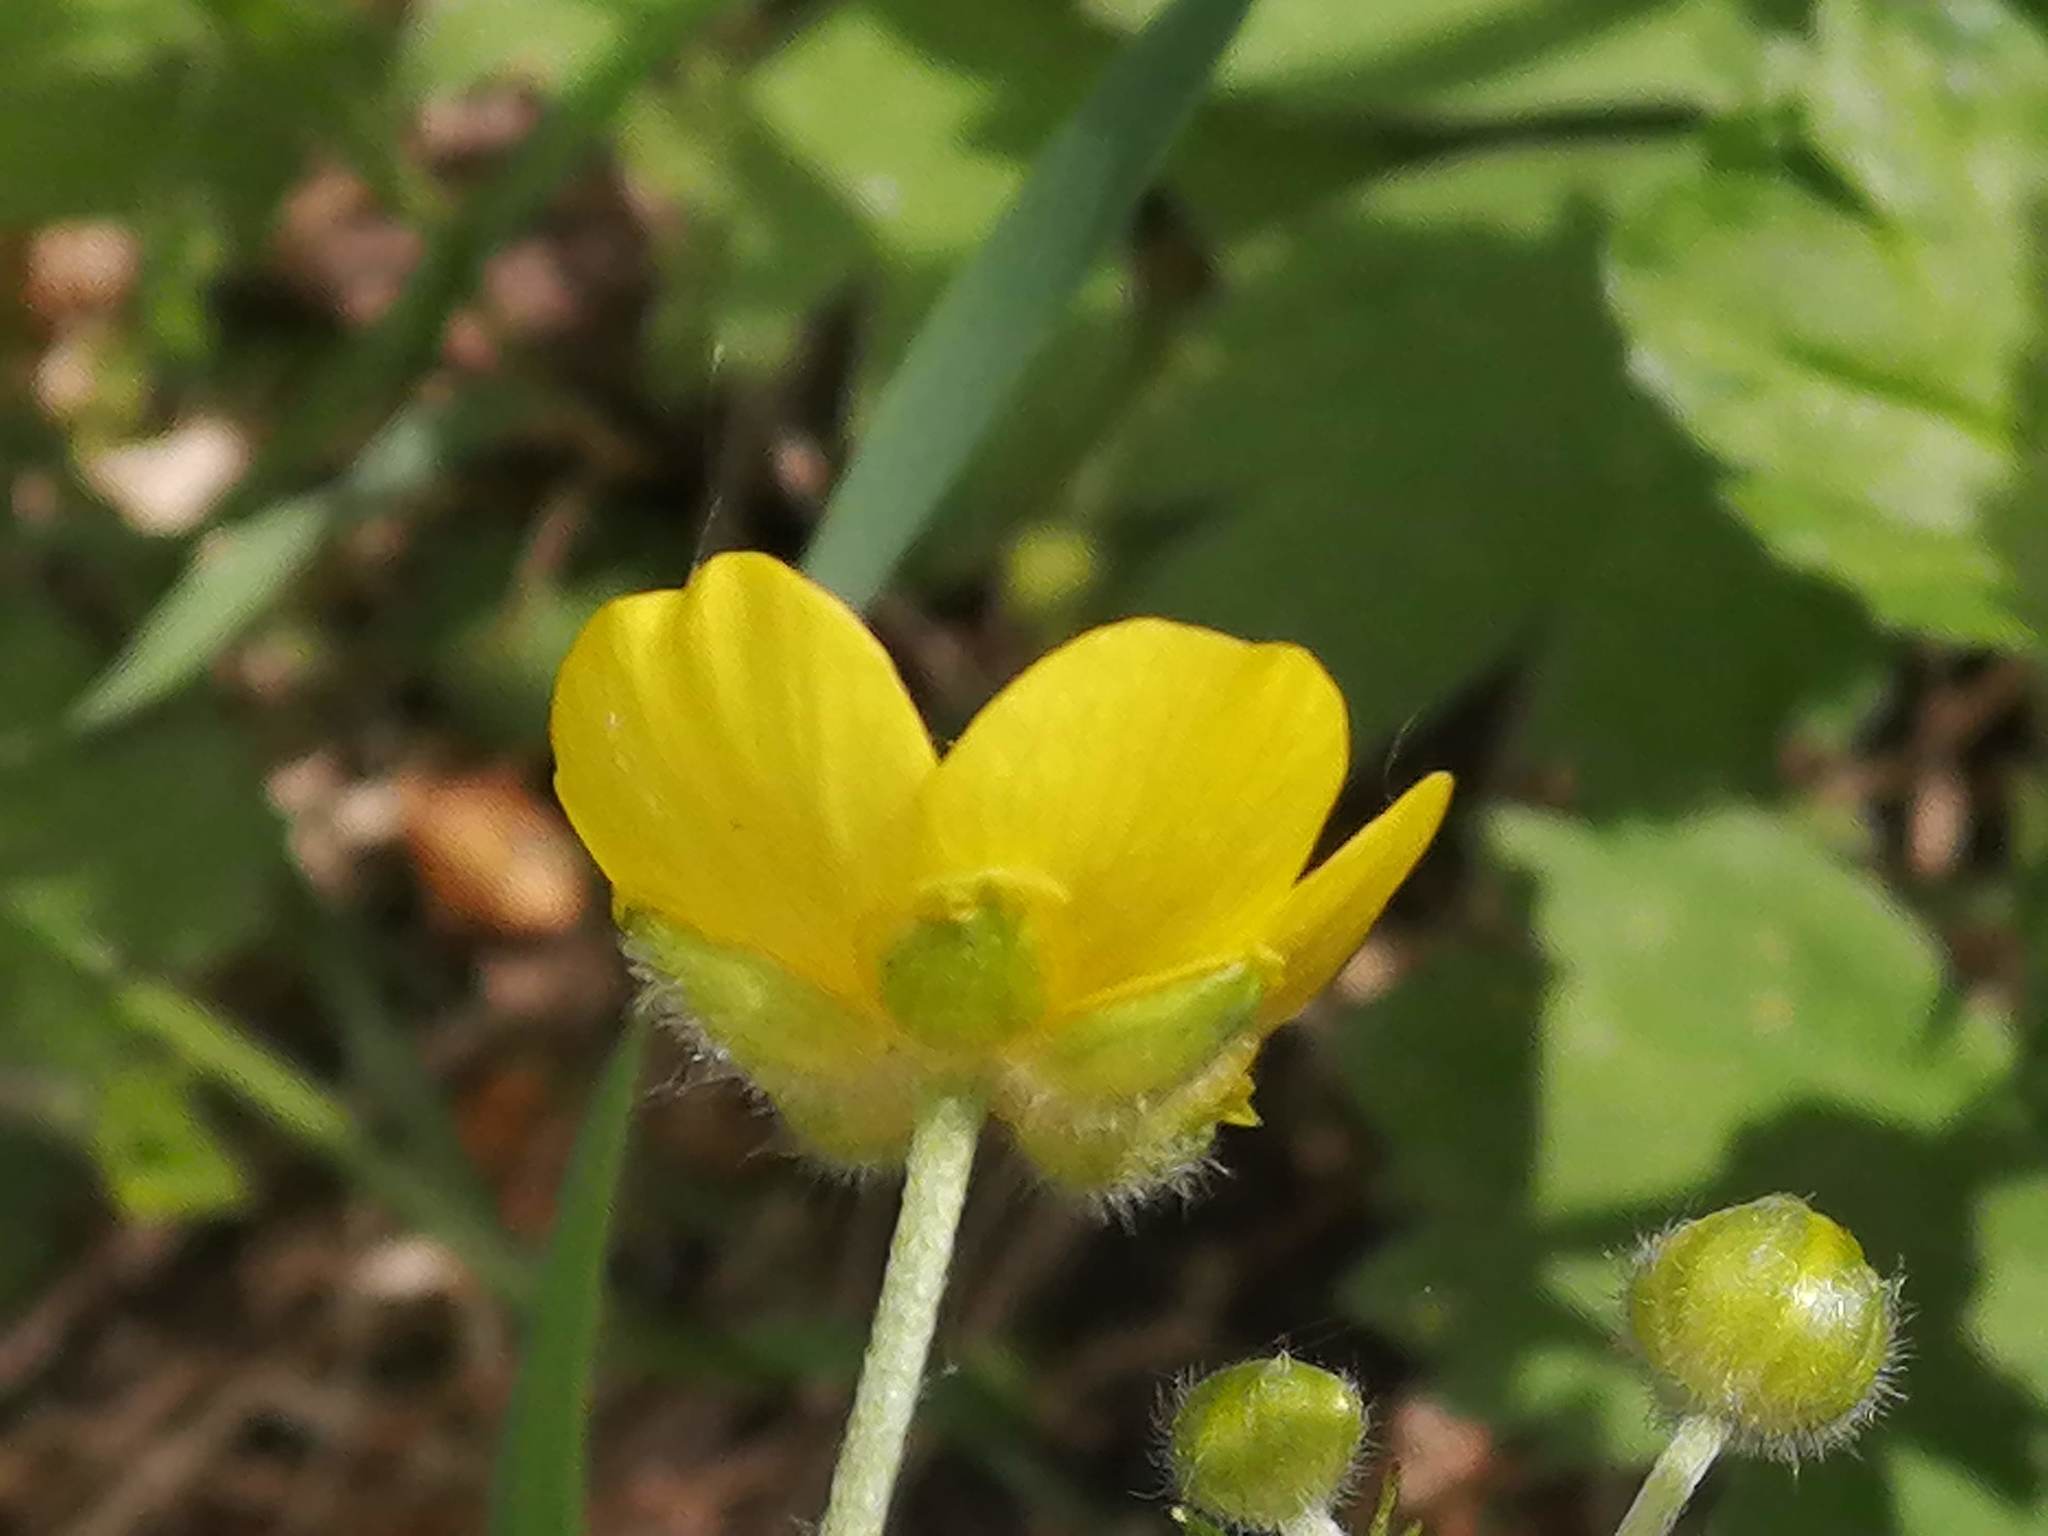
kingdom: Plantae
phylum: Tracheophyta
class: Magnoliopsida
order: Ranunculales
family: Ranunculaceae
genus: Ranunculus
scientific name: Ranunculus propinquus
